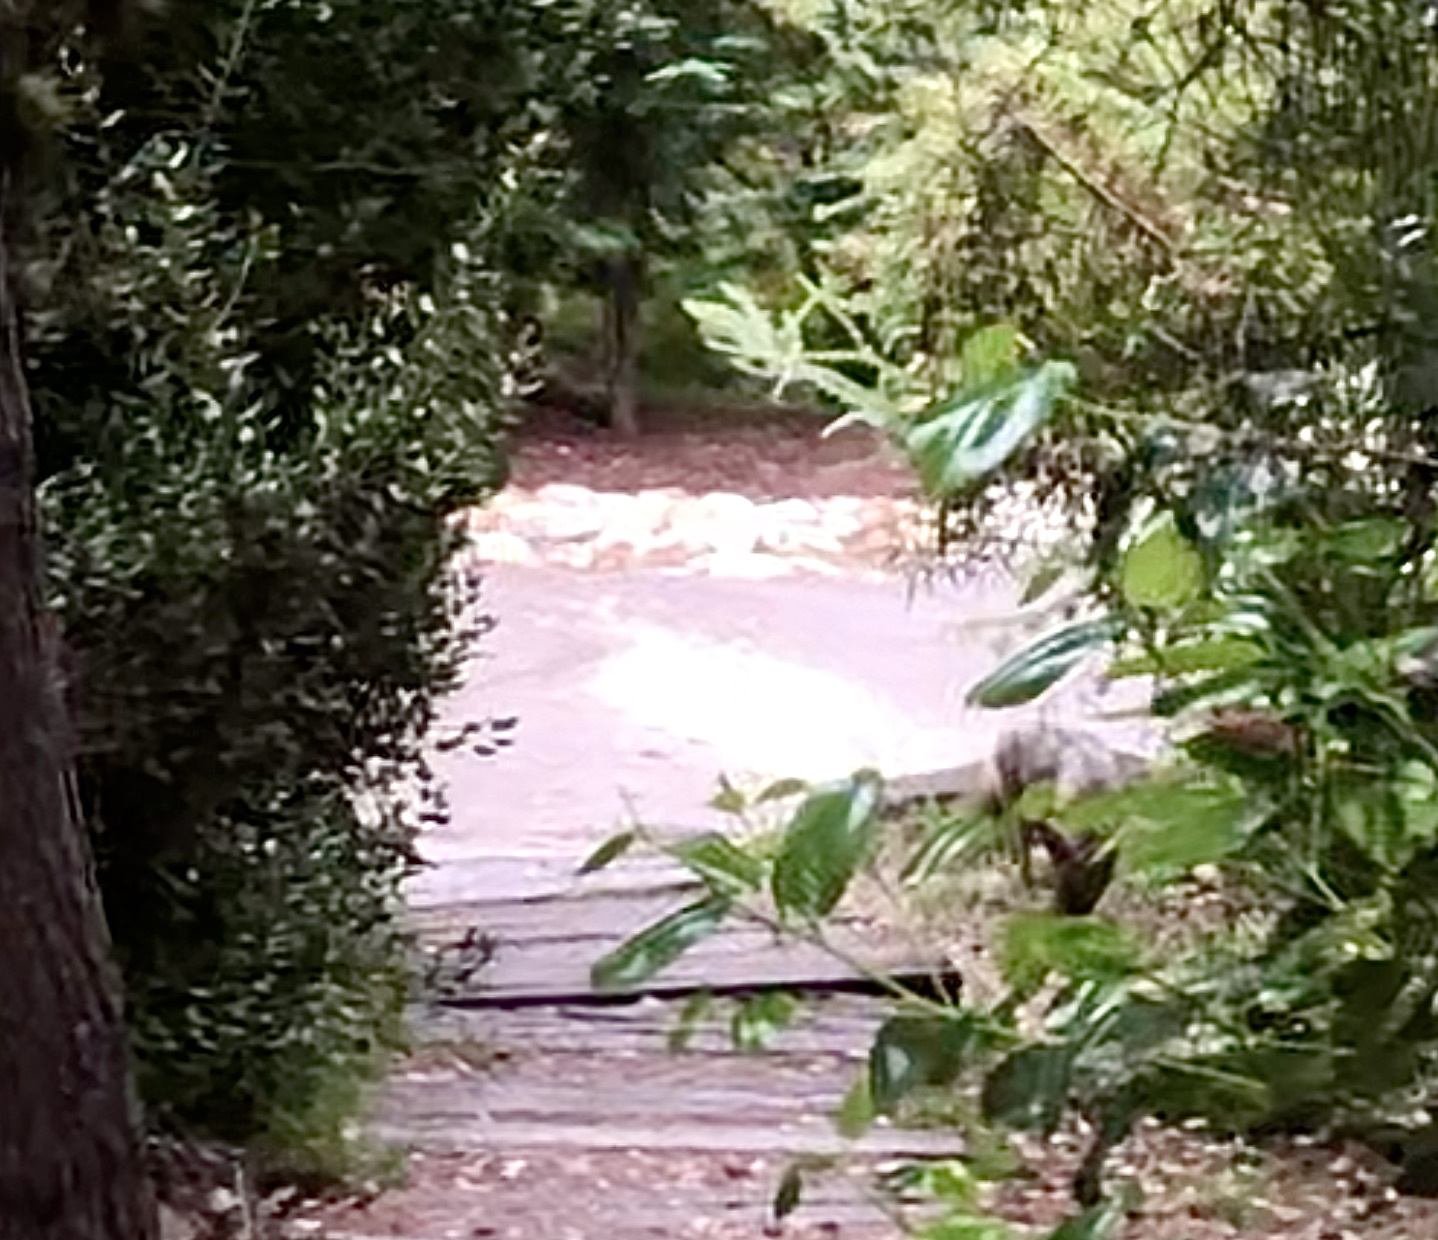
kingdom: Animalia
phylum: Chordata
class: Mammalia
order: Carnivora
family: Canidae
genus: Canis
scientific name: Canis latrans
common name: Coyote
